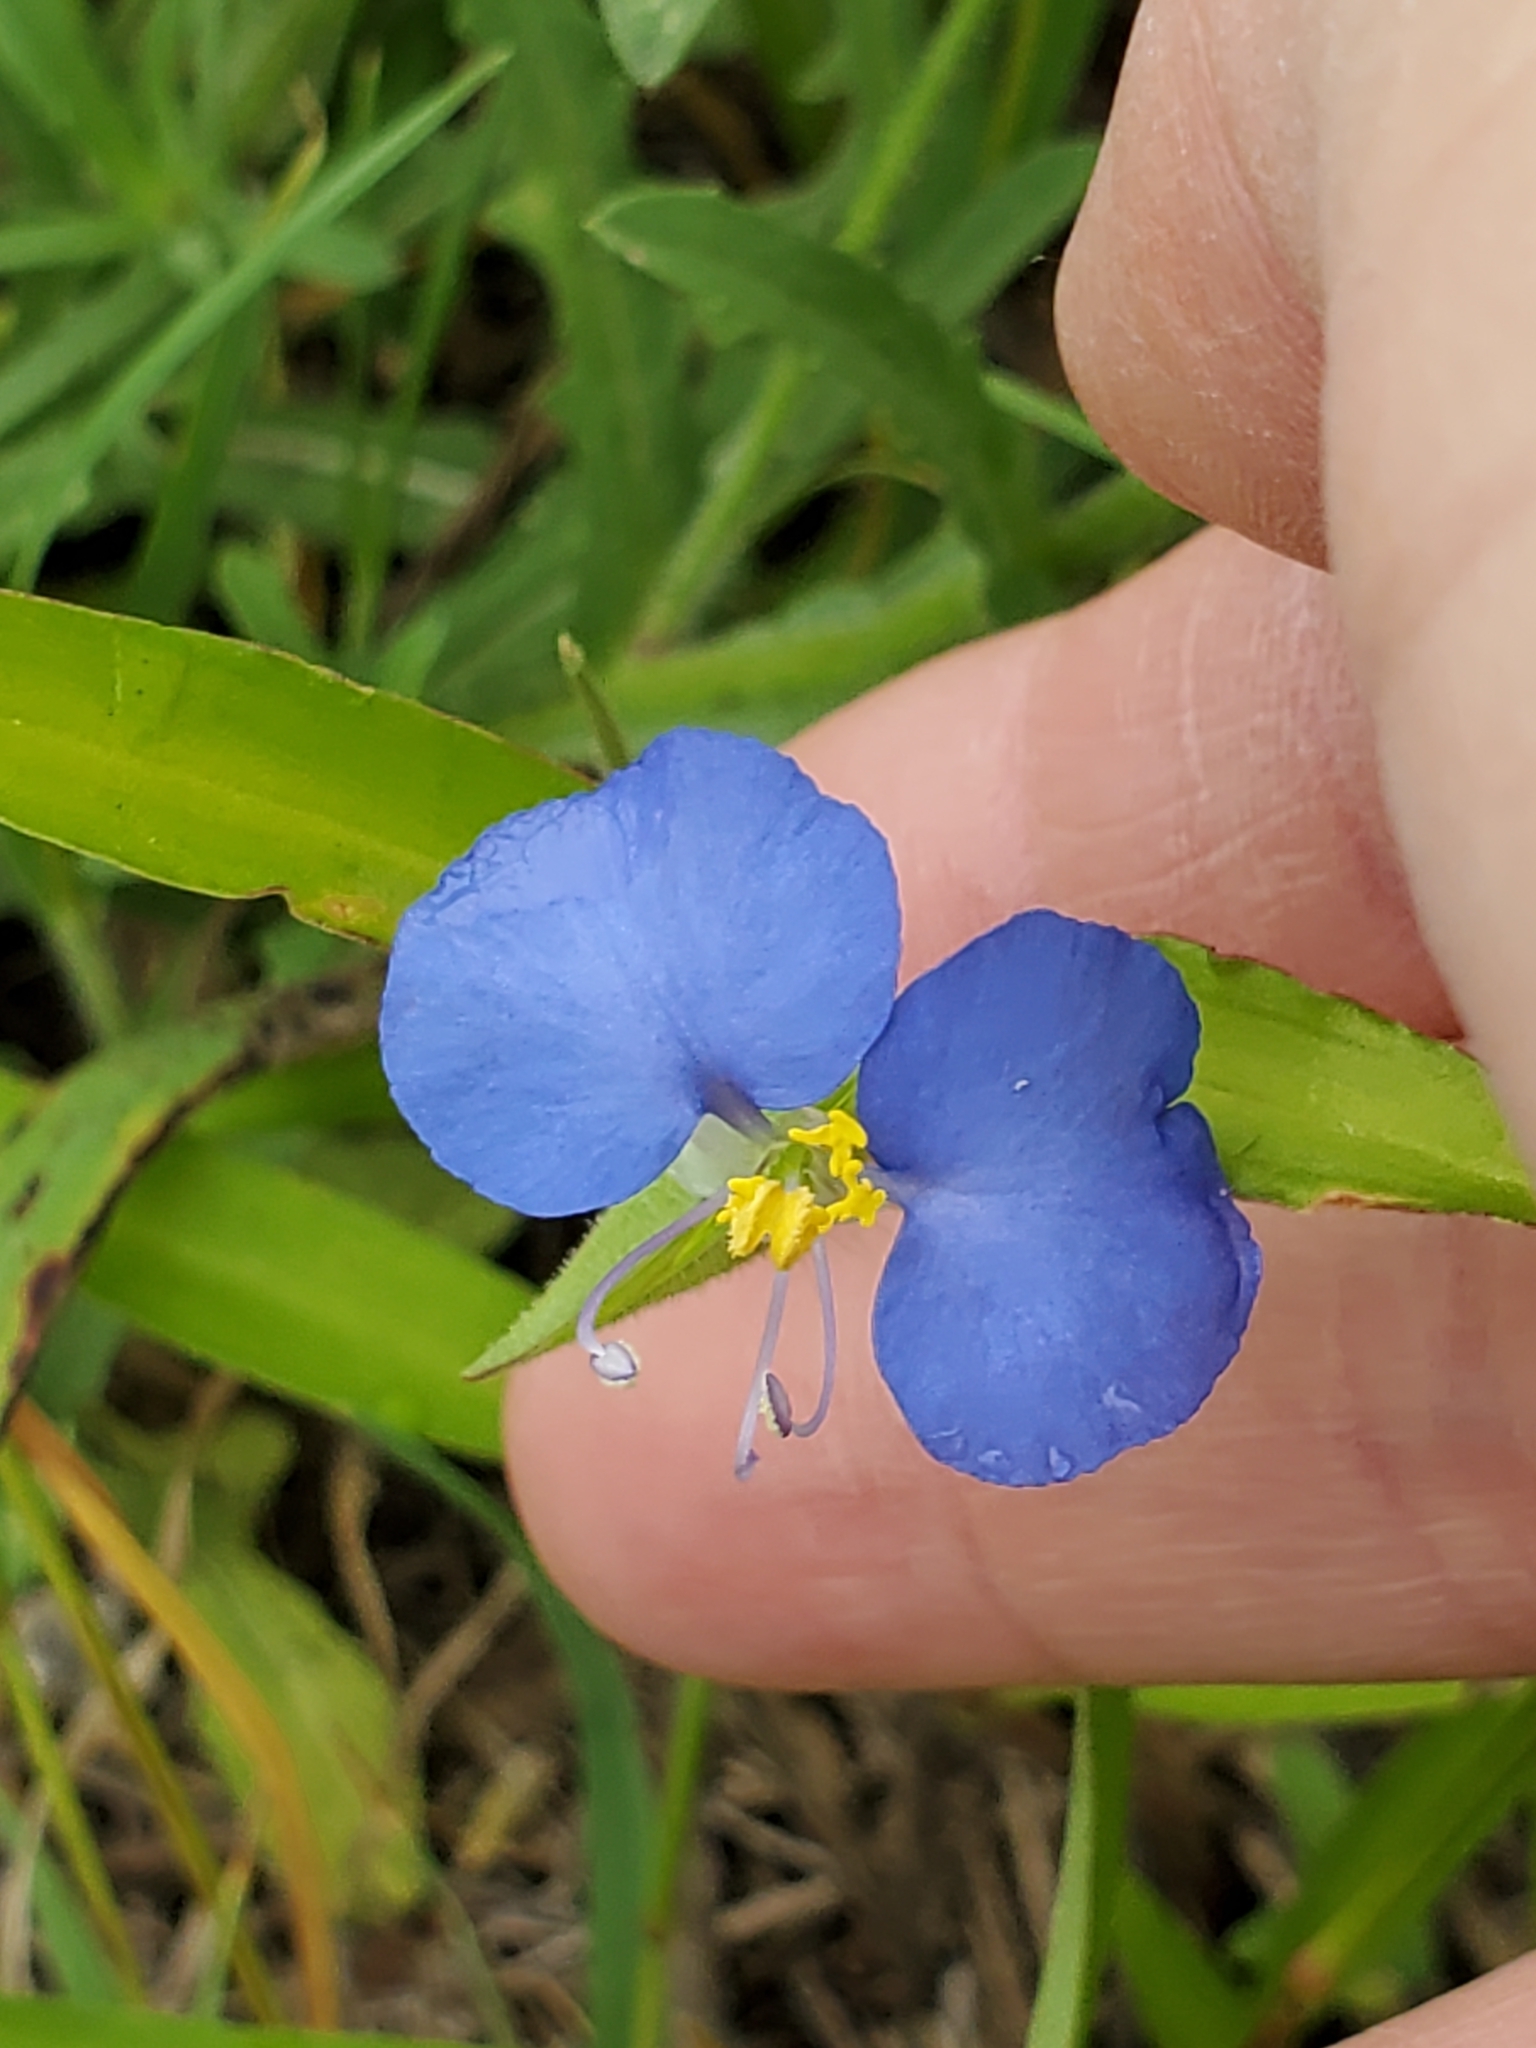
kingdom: Plantae
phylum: Tracheophyta
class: Liliopsida
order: Commelinales
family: Commelinaceae
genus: Commelina
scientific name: Commelina erecta
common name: Blousel blommetjie
